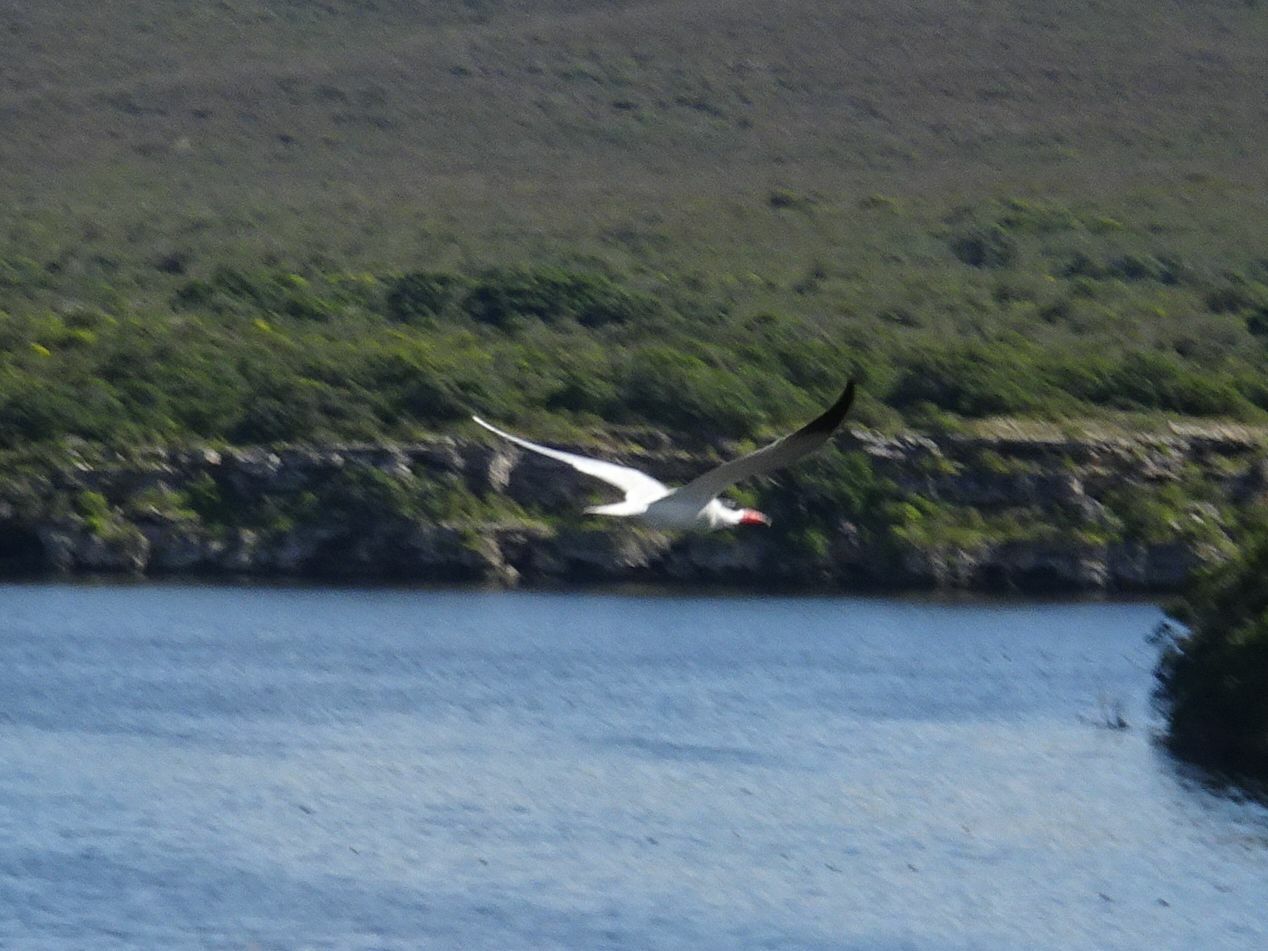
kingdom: Animalia
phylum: Chordata
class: Aves
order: Charadriiformes
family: Laridae
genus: Hydroprogne
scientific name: Hydroprogne caspia
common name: Caspian tern
